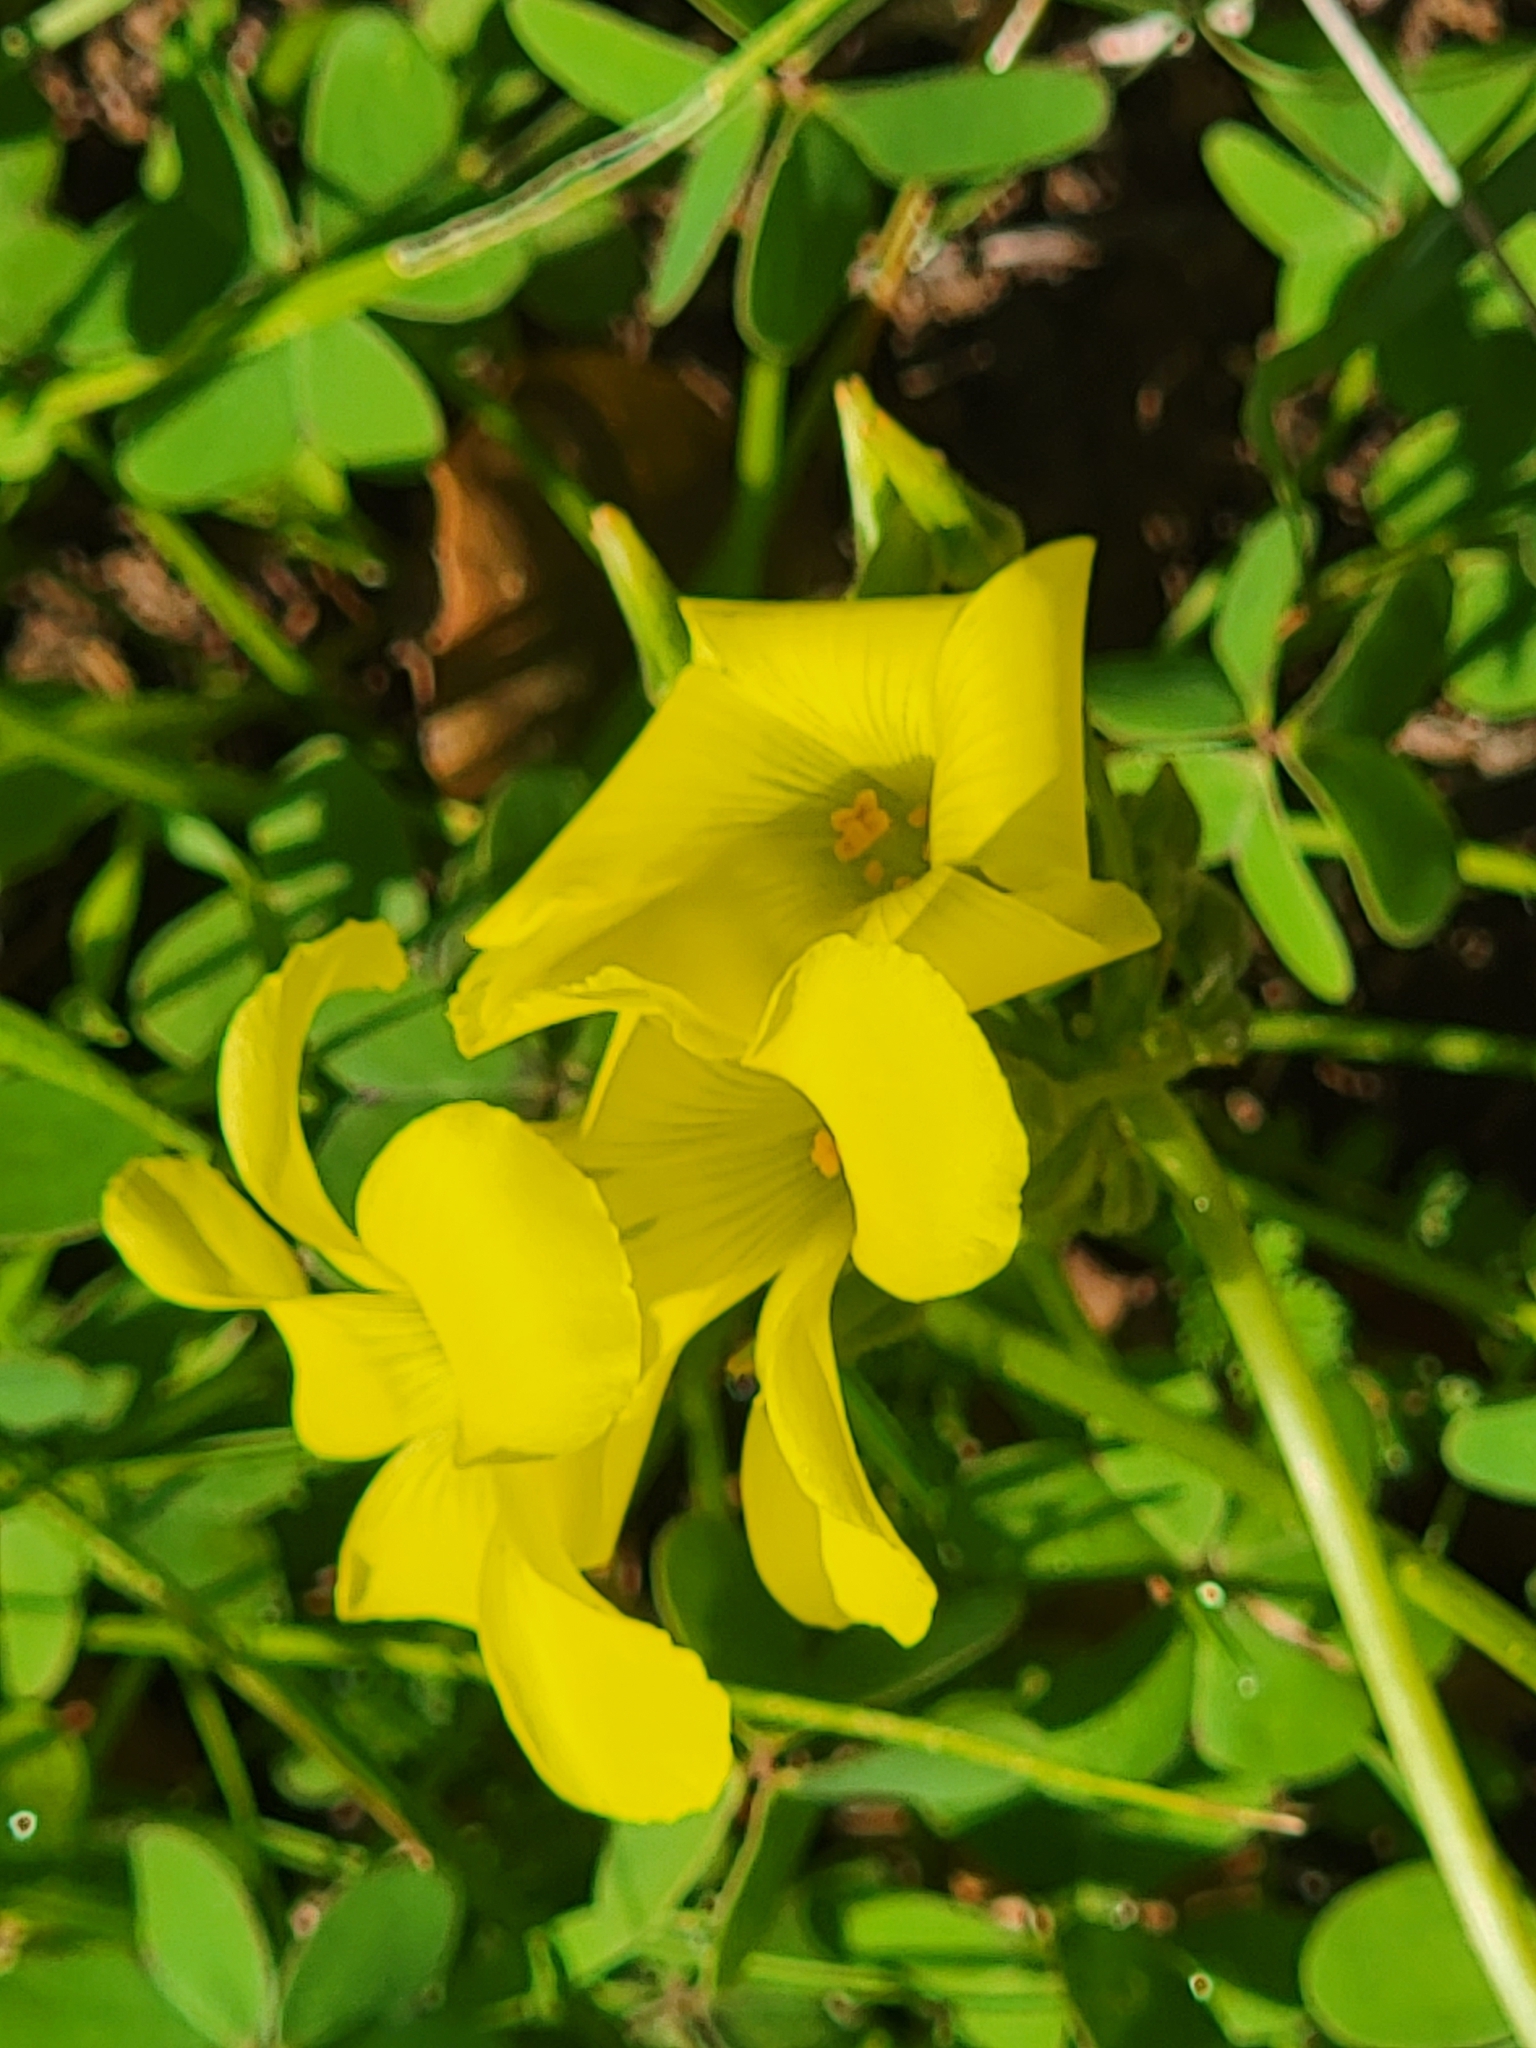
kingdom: Plantae
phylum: Tracheophyta
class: Magnoliopsida
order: Oxalidales
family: Oxalidaceae
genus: Oxalis
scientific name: Oxalis pes-caprae
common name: Bermuda-buttercup
